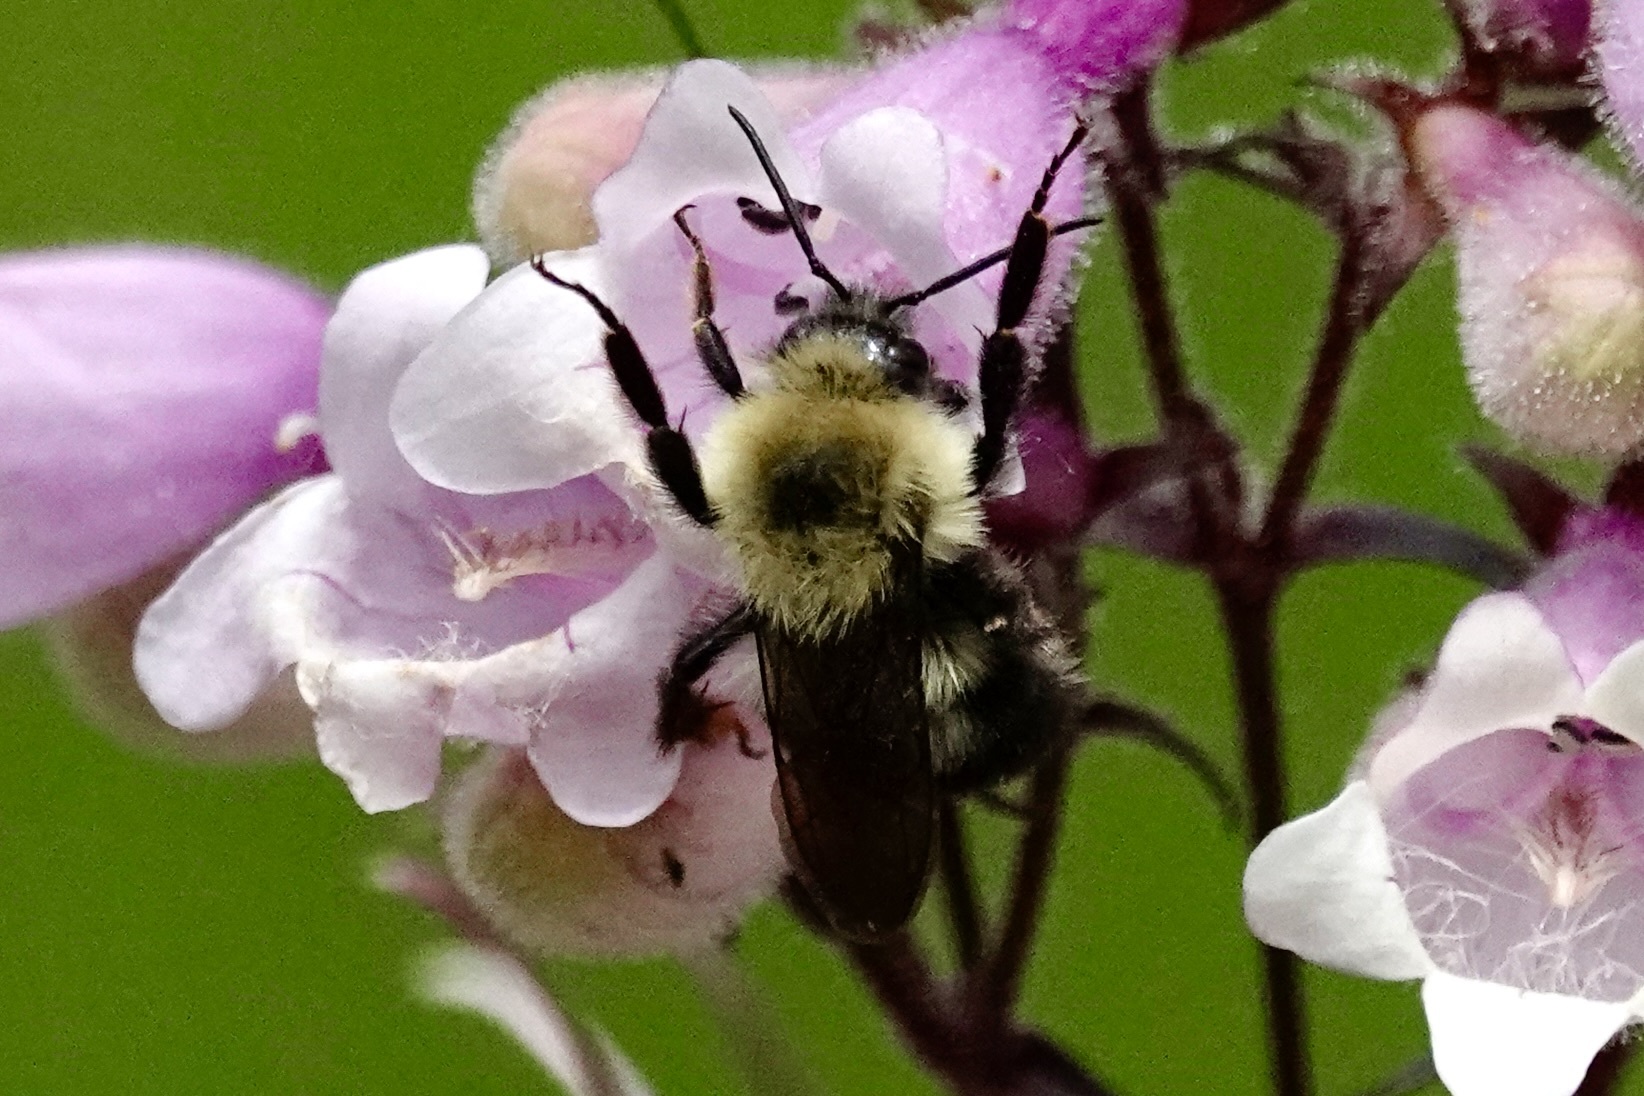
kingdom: Animalia
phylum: Arthropoda
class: Insecta
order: Hymenoptera
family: Apidae
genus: Bombus
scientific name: Bombus bimaculatus
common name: Two-spotted bumble bee
